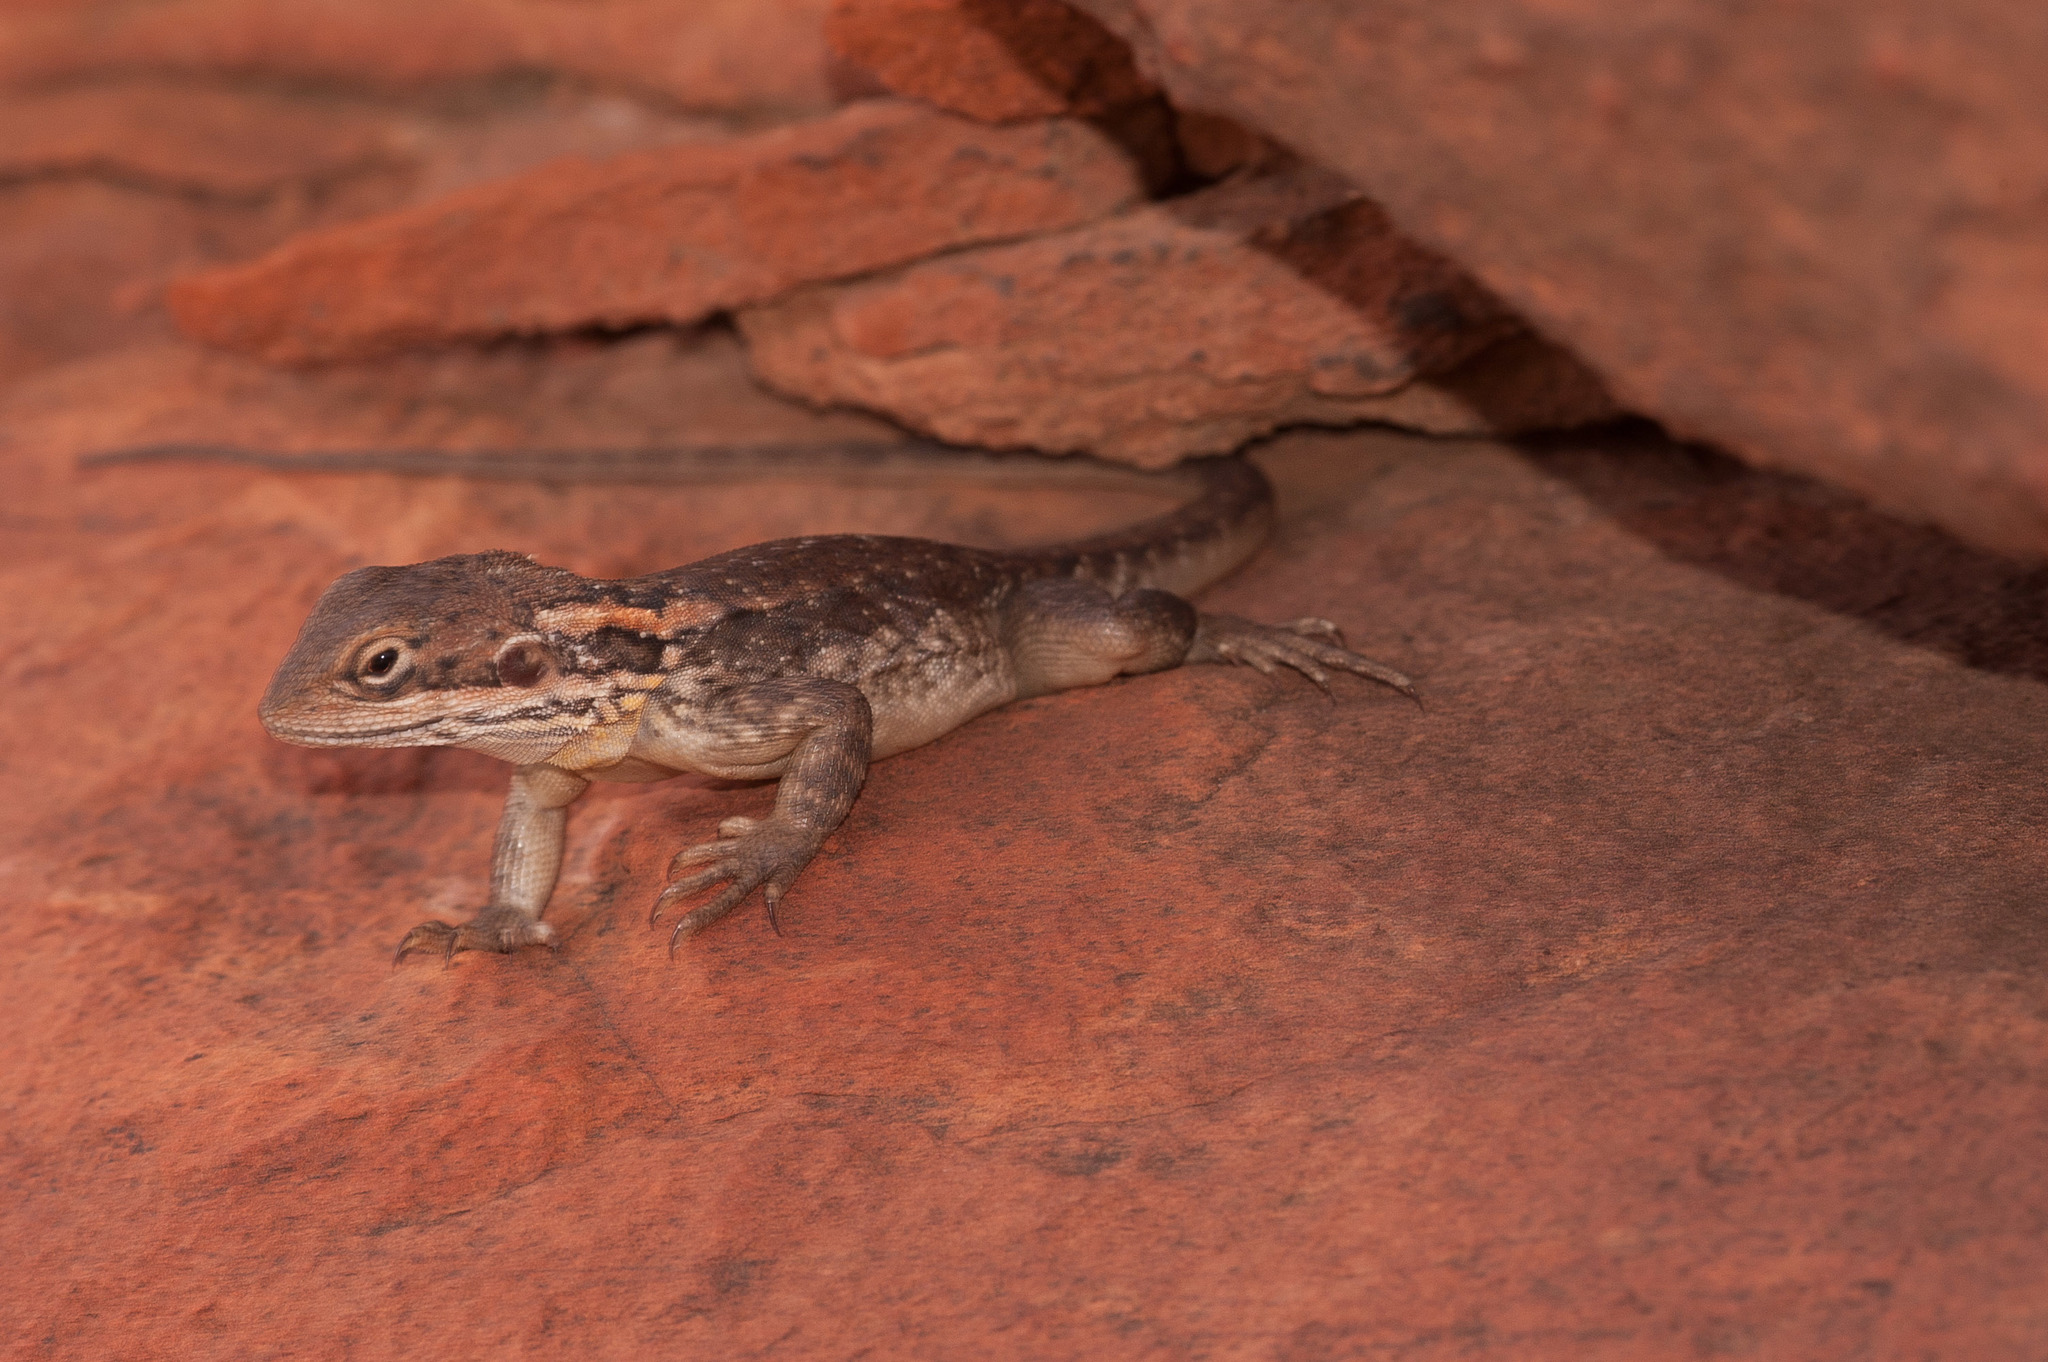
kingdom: Animalia
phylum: Chordata
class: Squamata
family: Agamidae
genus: Ctenophorus
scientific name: Ctenophorus modestus
